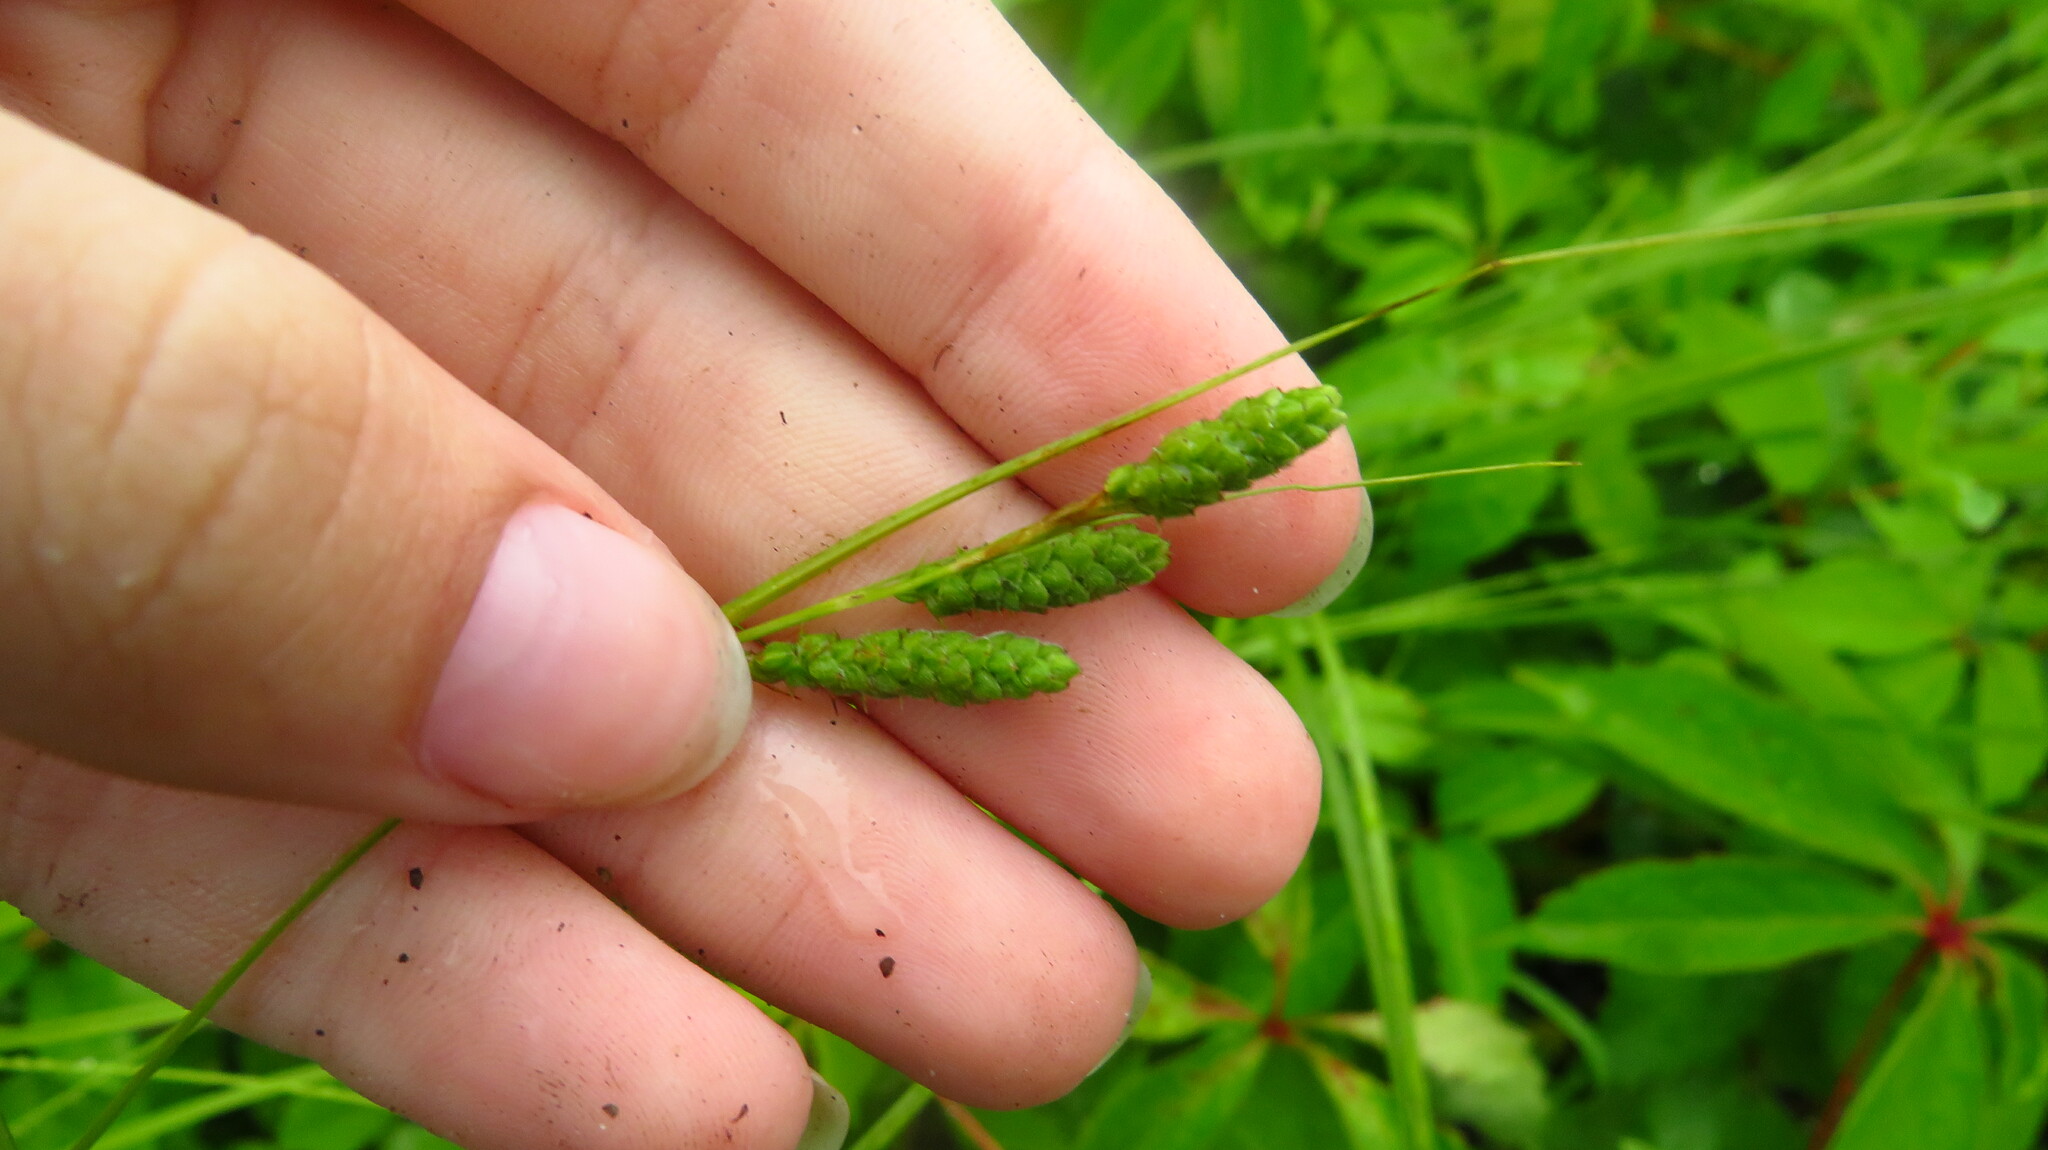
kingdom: Plantae
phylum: Tracheophyta
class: Liliopsida
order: Poales
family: Cyperaceae
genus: Carex
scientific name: Carex swanii
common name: Downy green sedge
